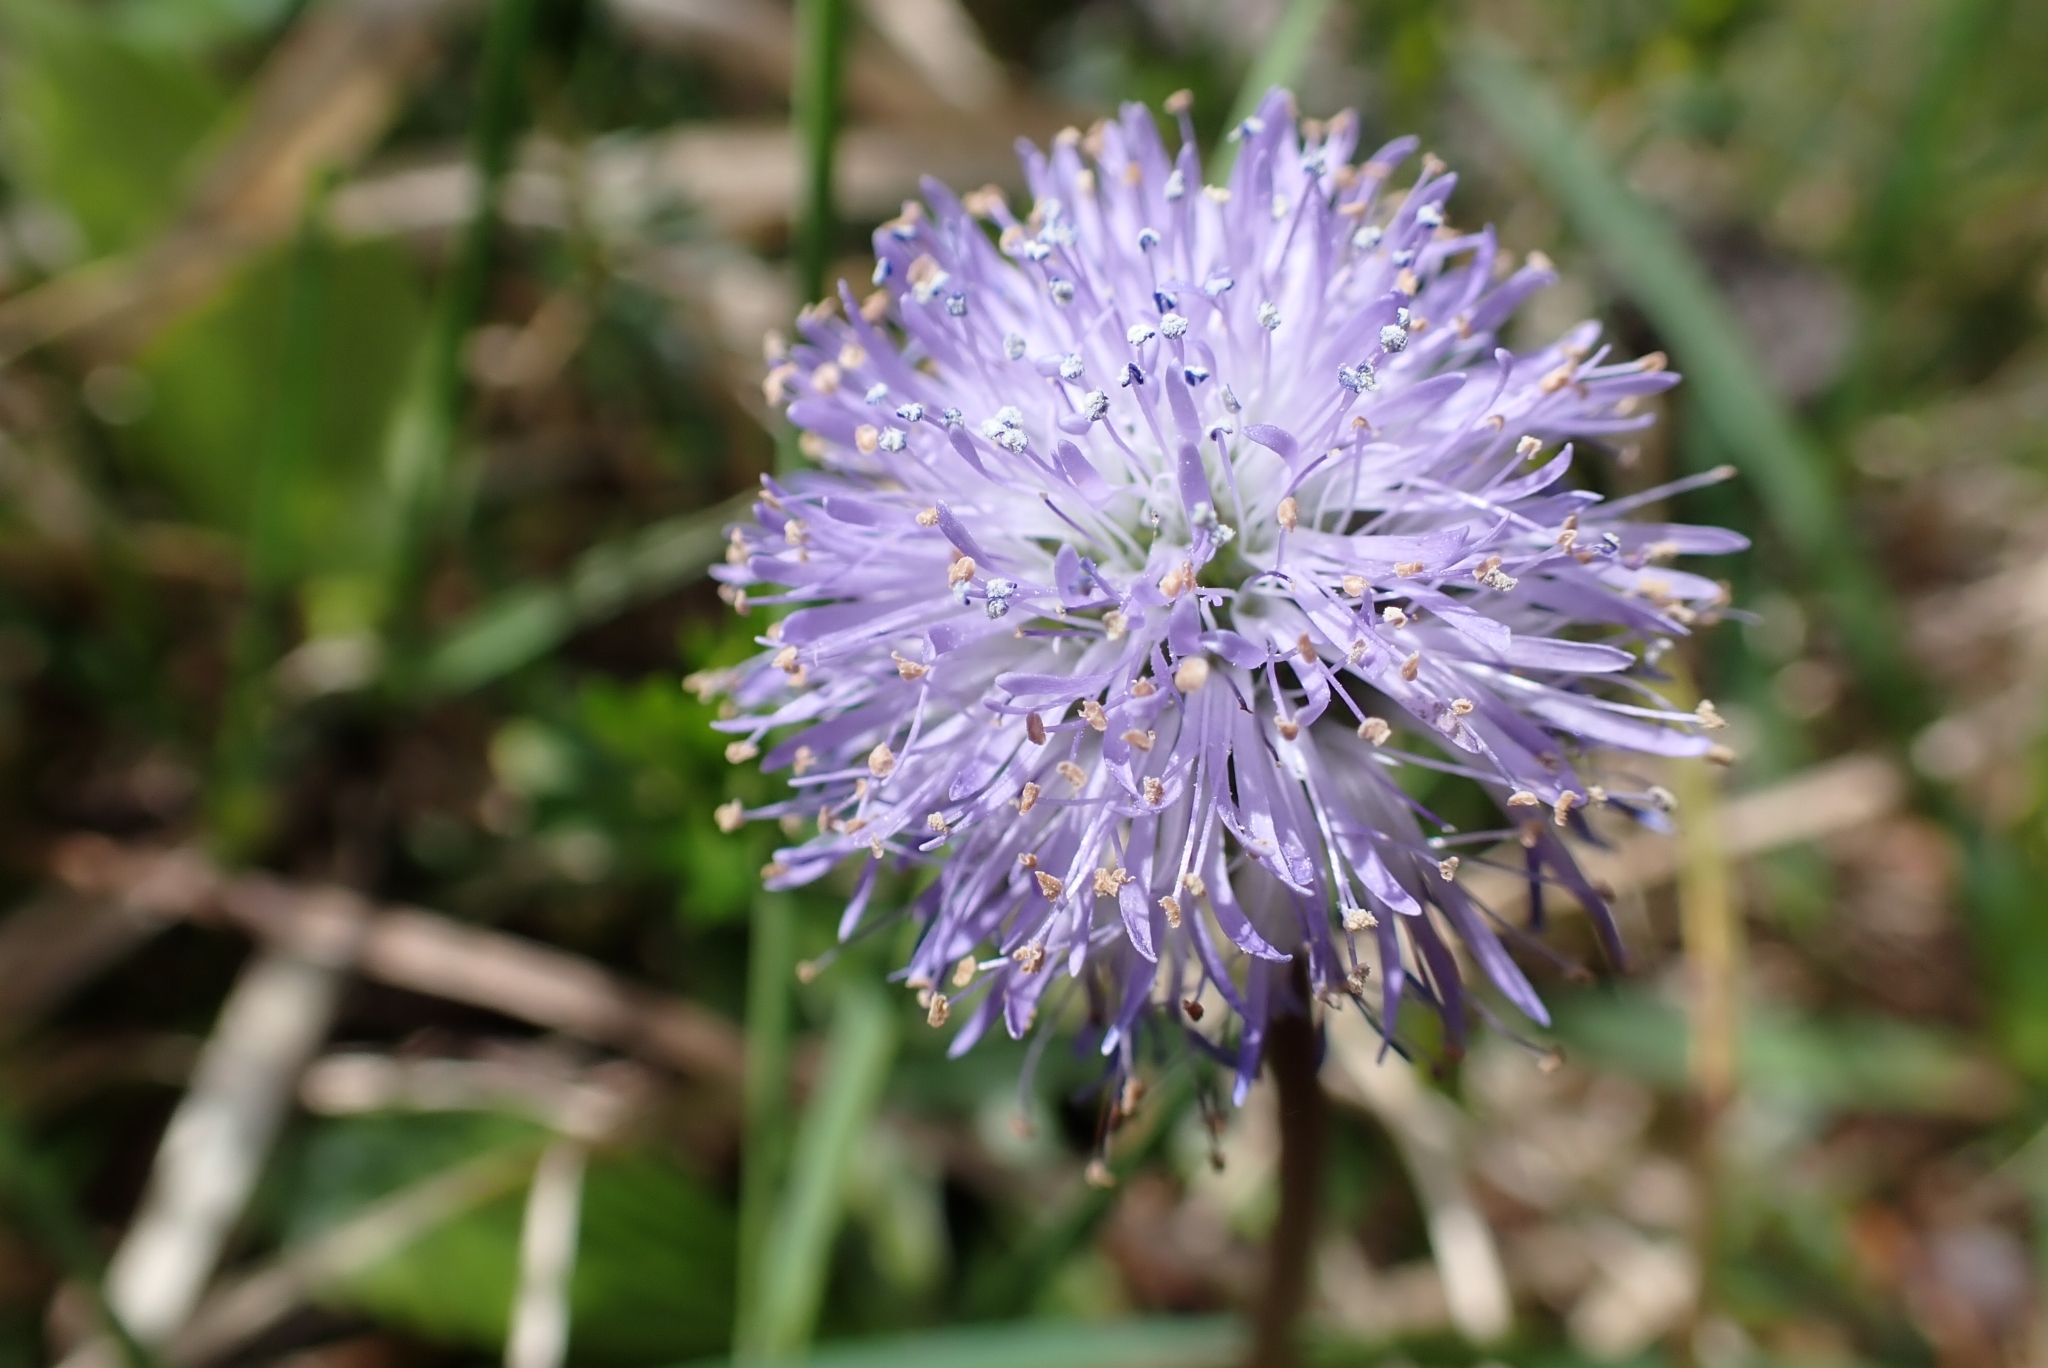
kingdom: Plantae
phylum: Tracheophyta
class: Magnoliopsida
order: Lamiales
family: Plantaginaceae
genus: Globularia
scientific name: Globularia nudicaulis
